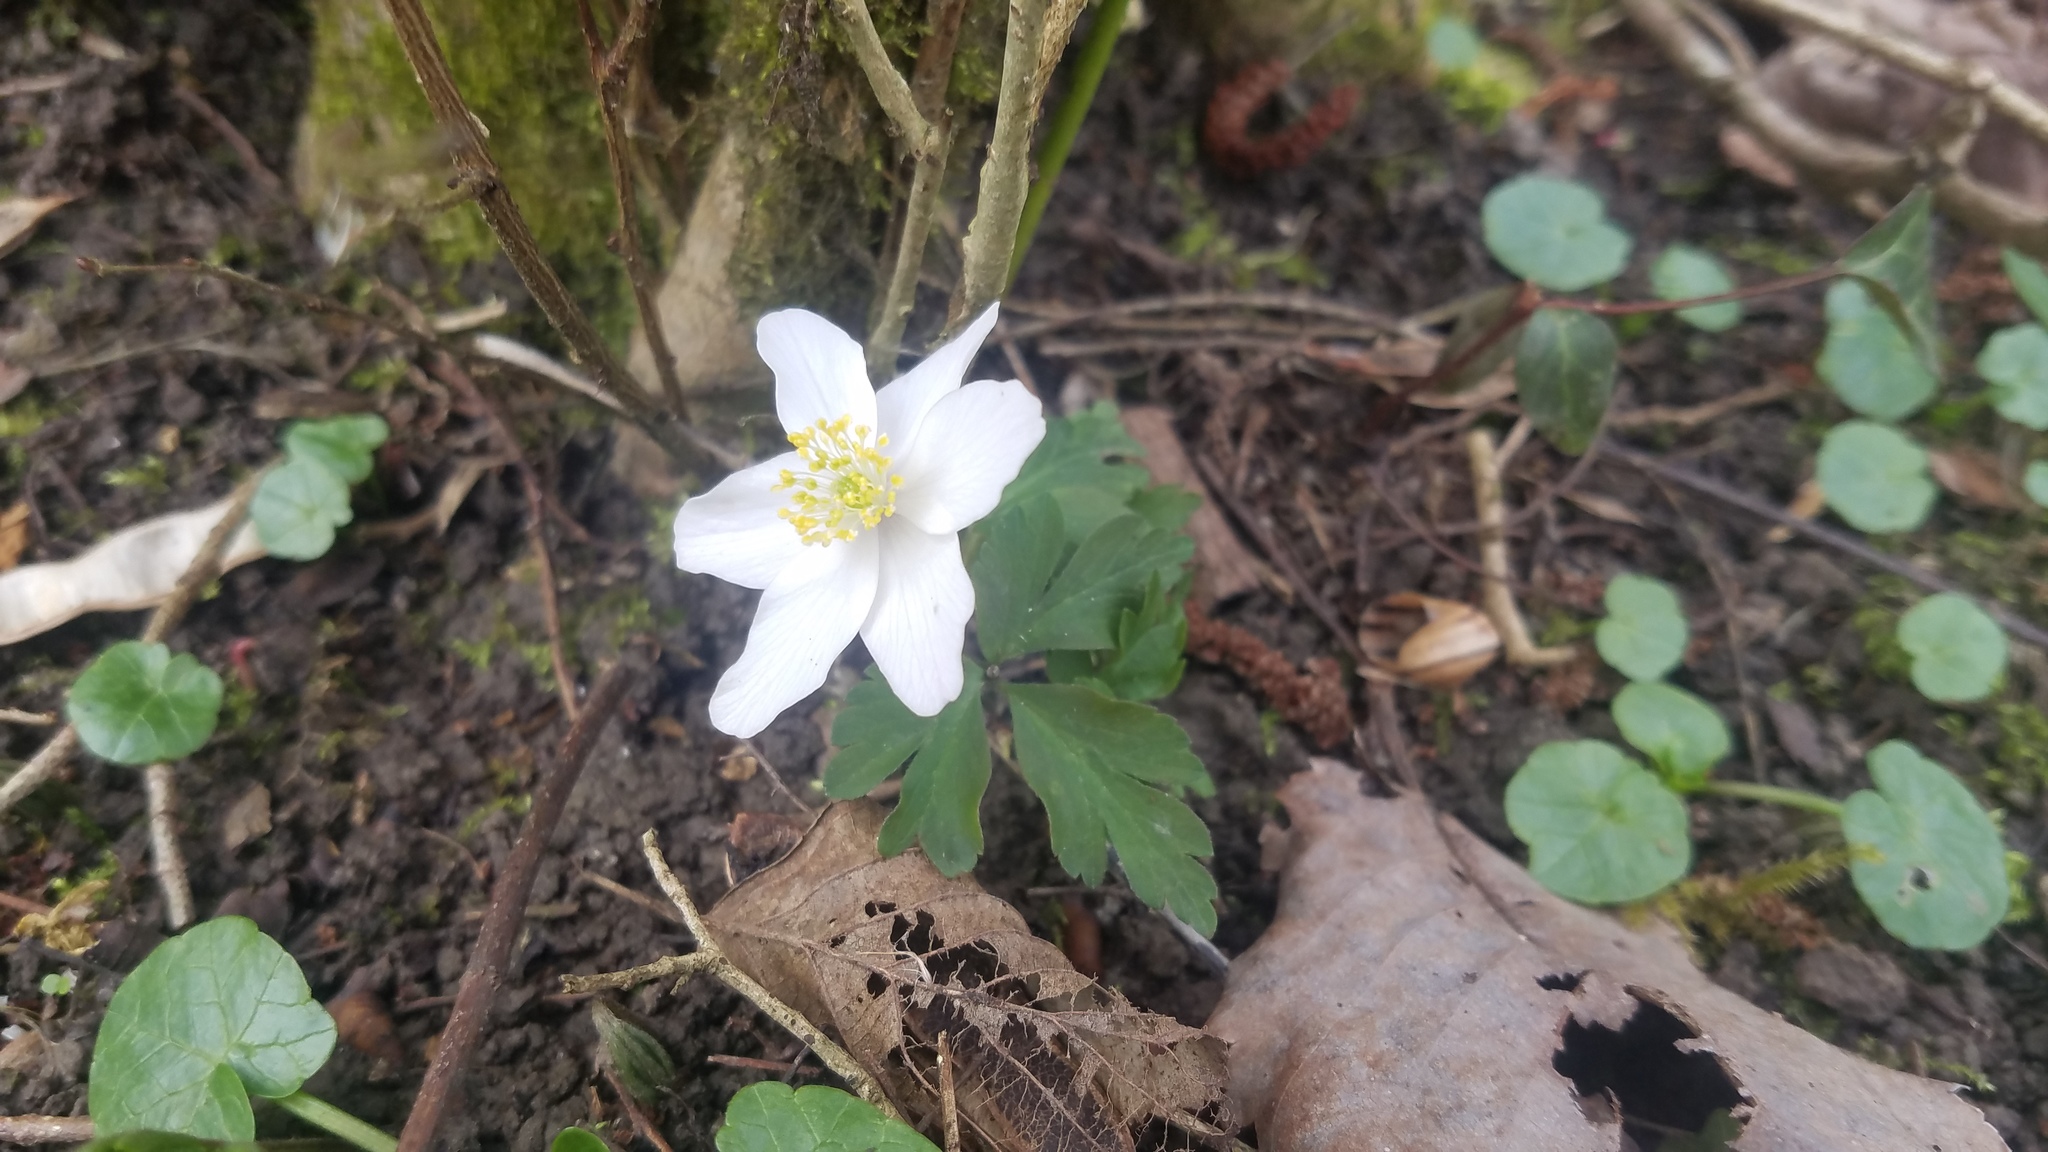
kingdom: Plantae
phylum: Tracheophyta
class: Magnoliopsida
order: Ranunculales
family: Ranunculaceae
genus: Anemone
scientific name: Anemone nemorosa
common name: Wood anemone
